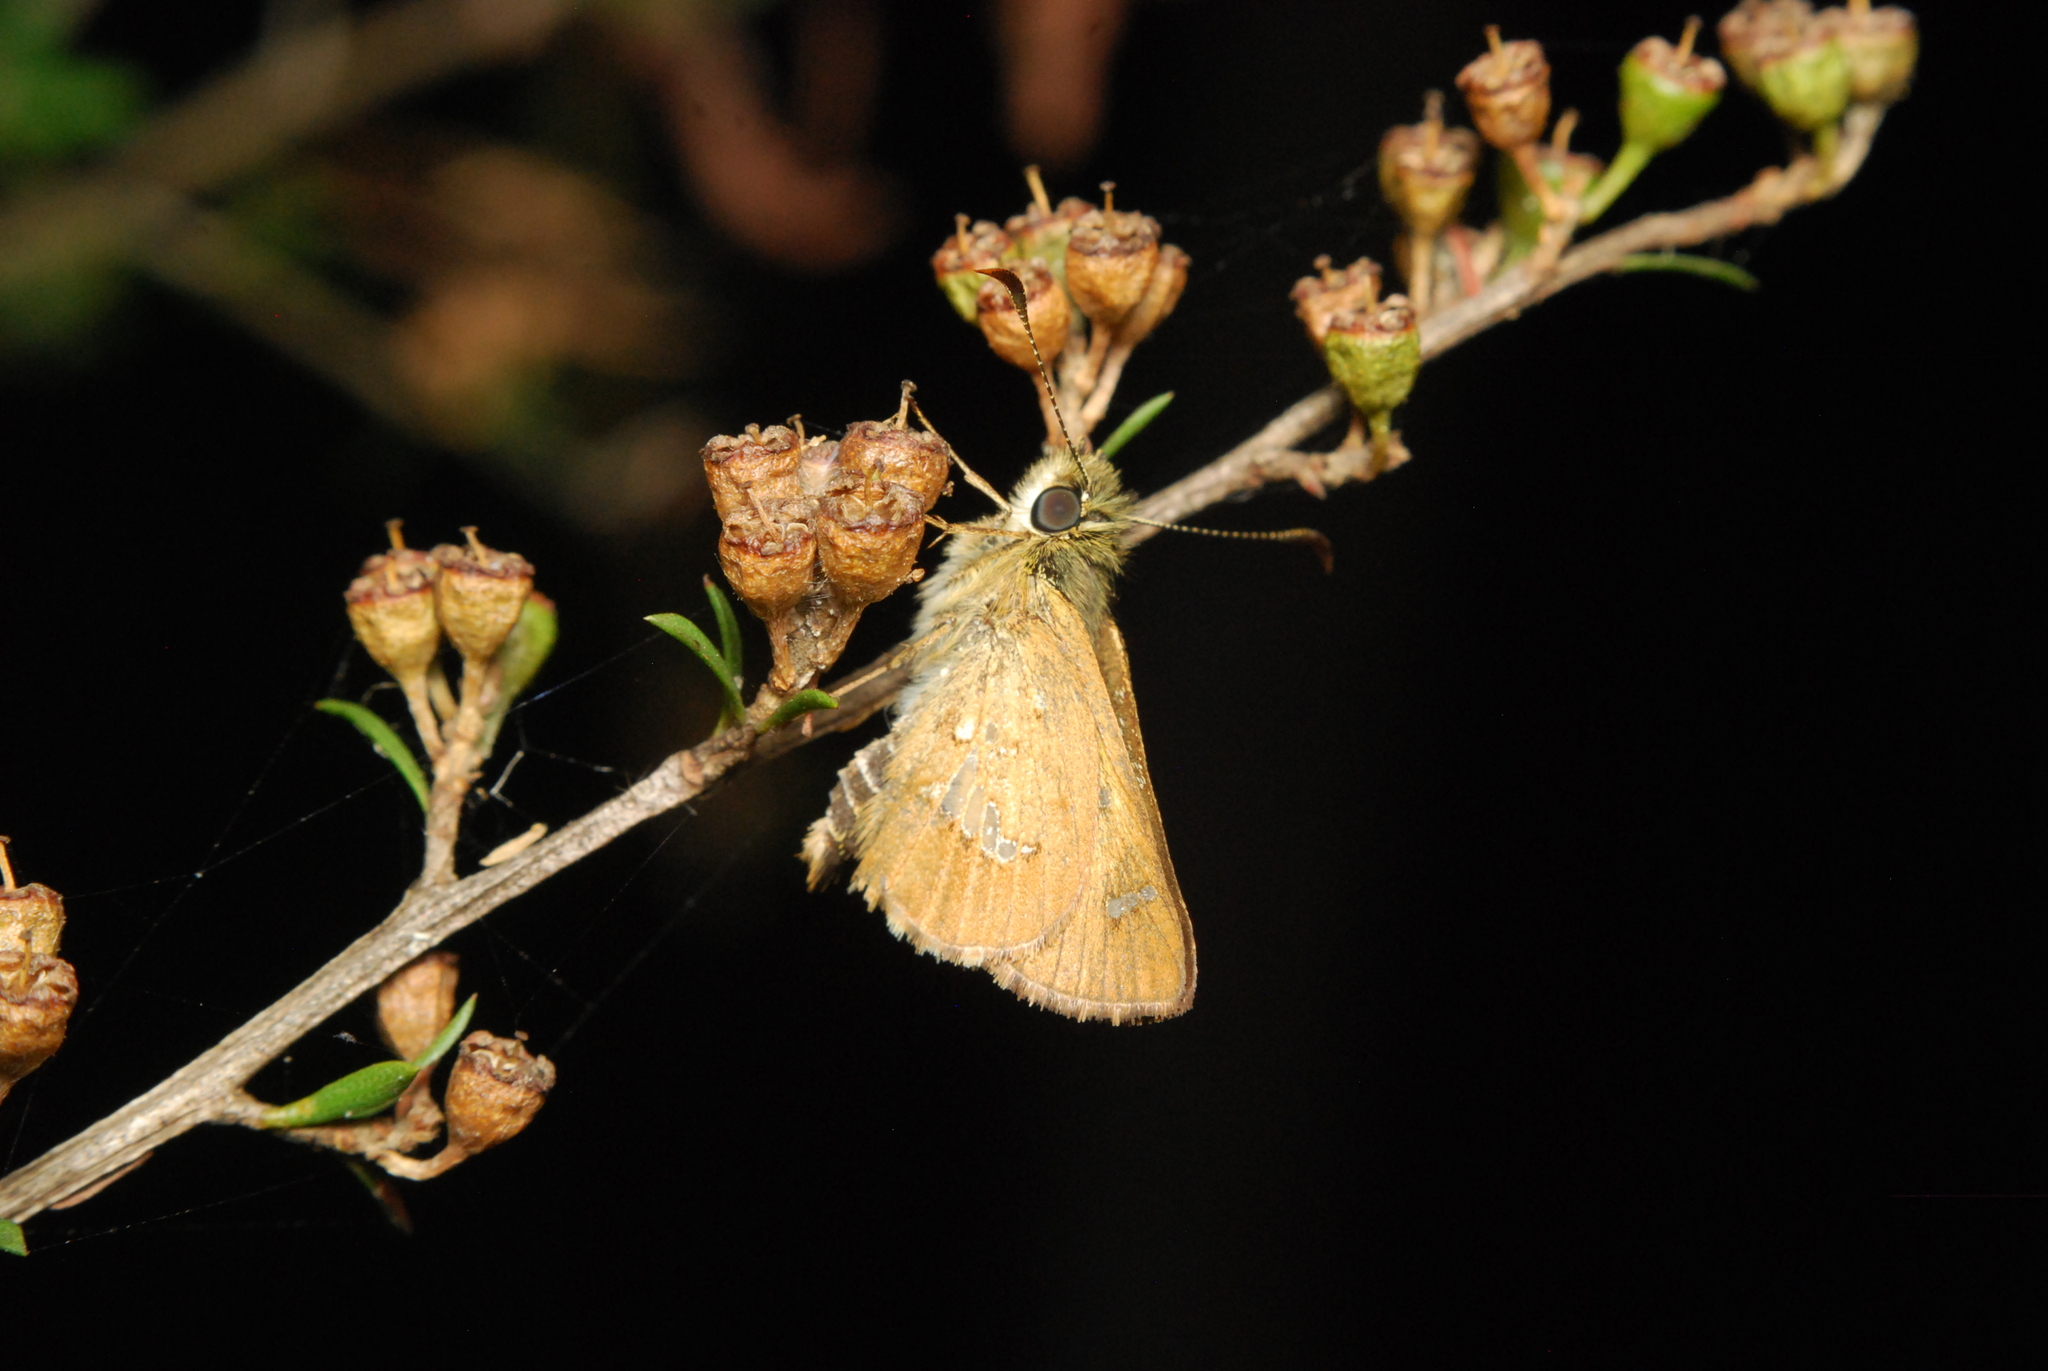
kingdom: Animalia
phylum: Arthropoda
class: Insecta
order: Lepidoptera
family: Hesperiidae
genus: Dispar
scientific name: Dispar compacta
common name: Barred skipper
